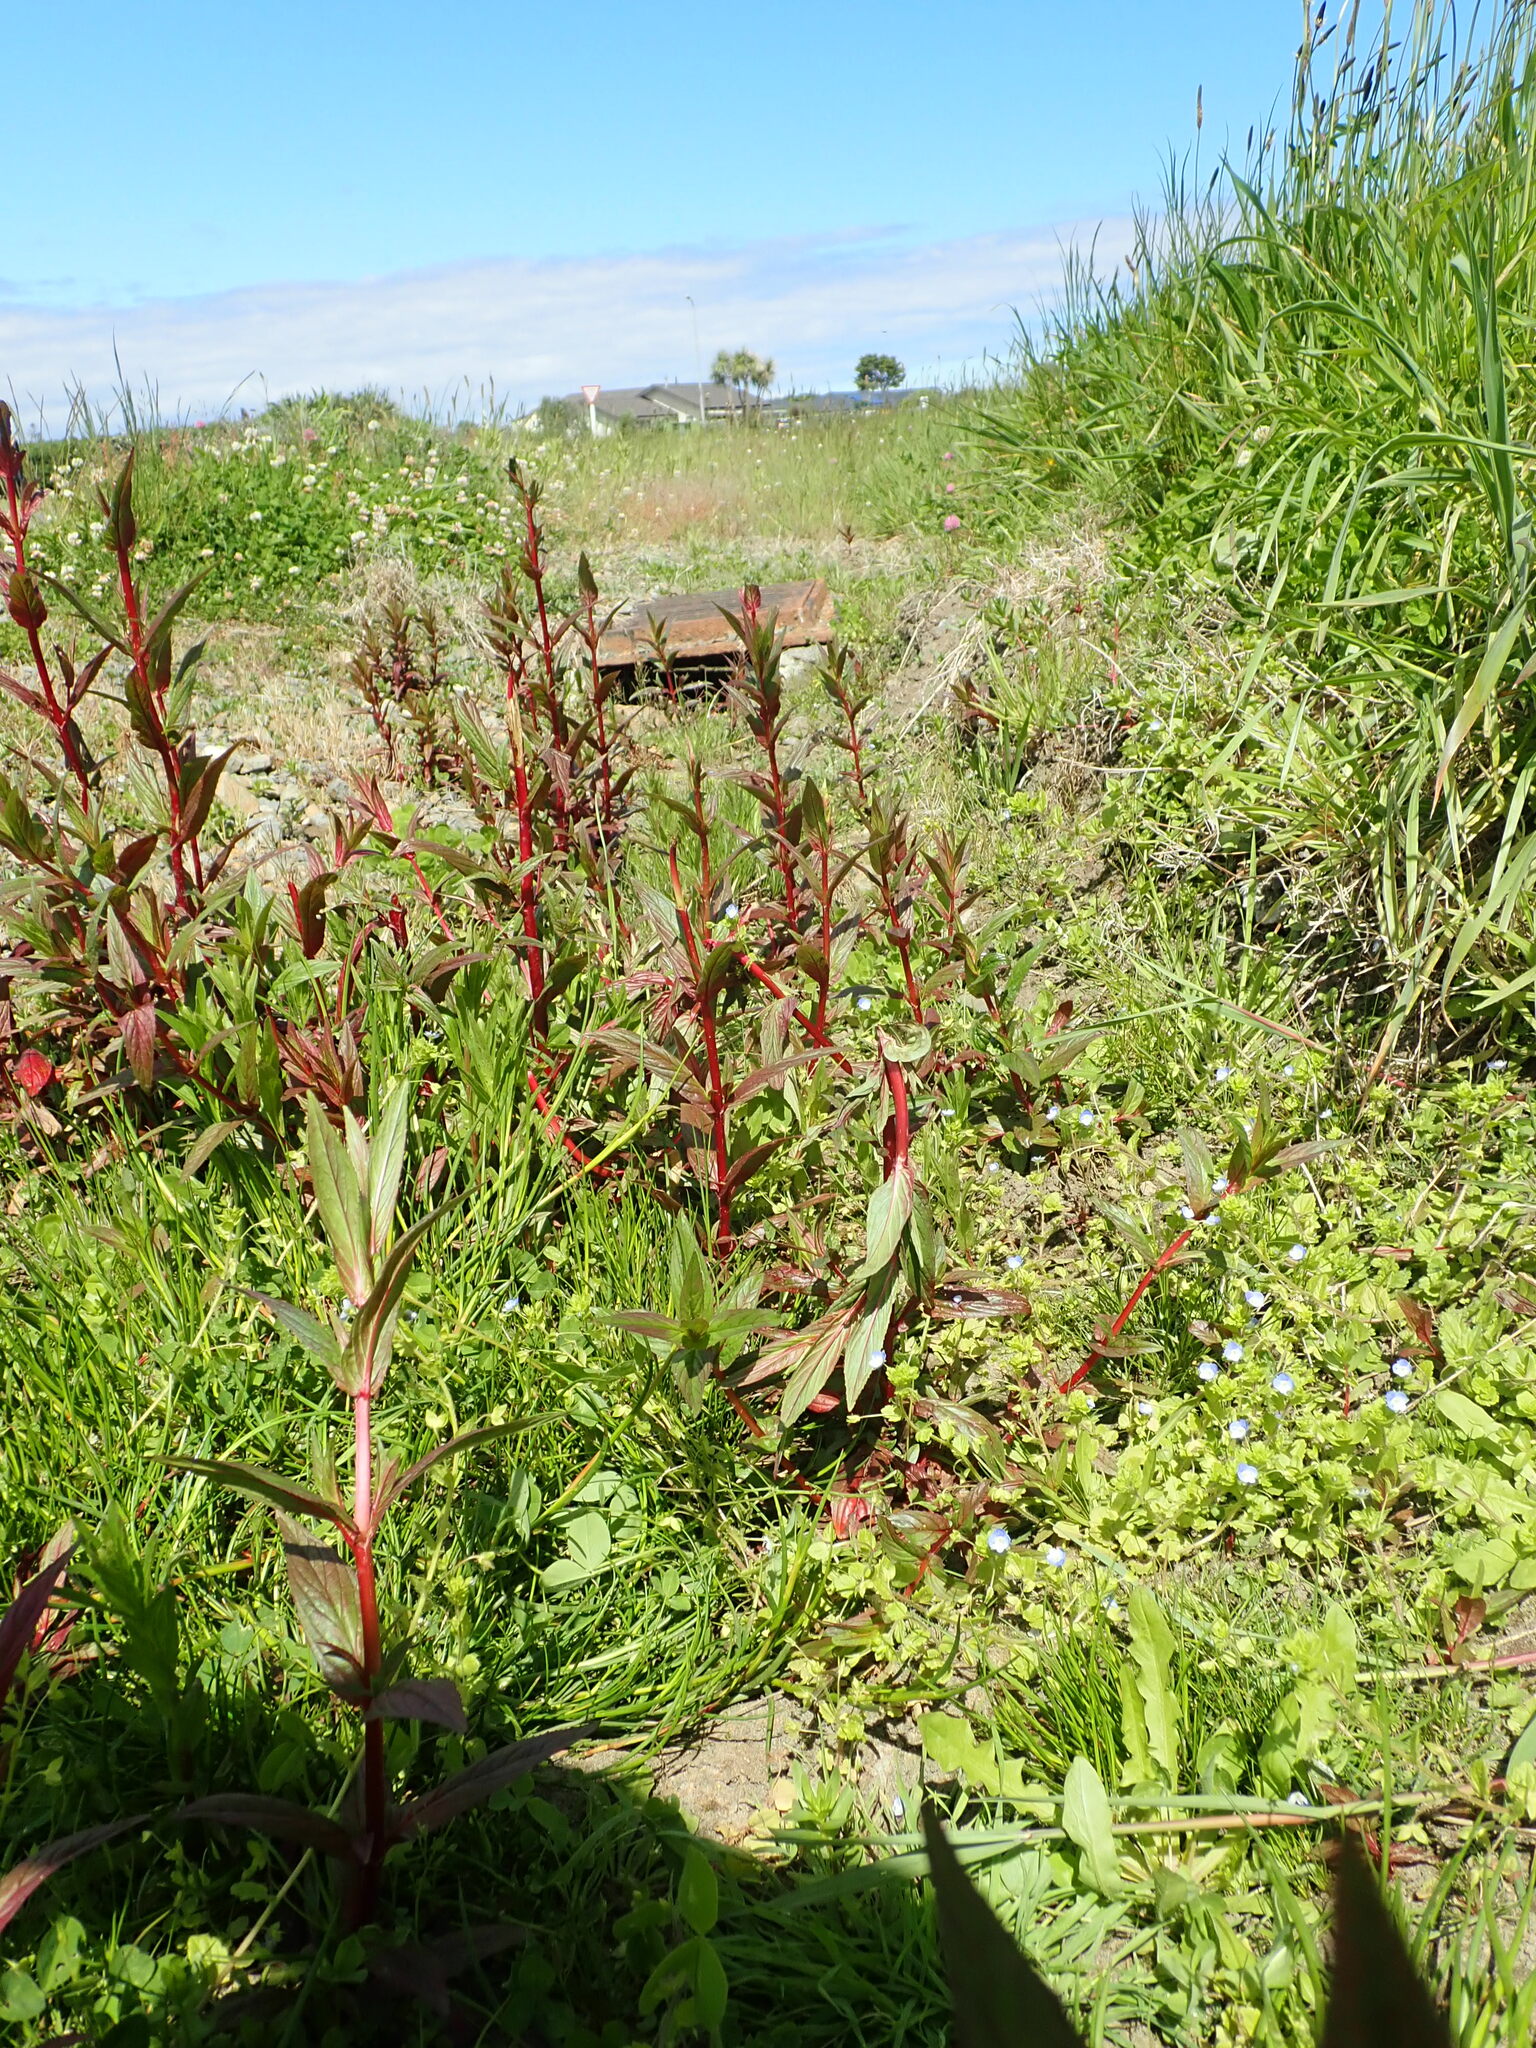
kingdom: Plantae
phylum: Tracheophyta
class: Magnoliopsida
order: Myrtales
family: Onagraceae
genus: Epilobium
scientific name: Epilobium ciliatum
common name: American willowherb
